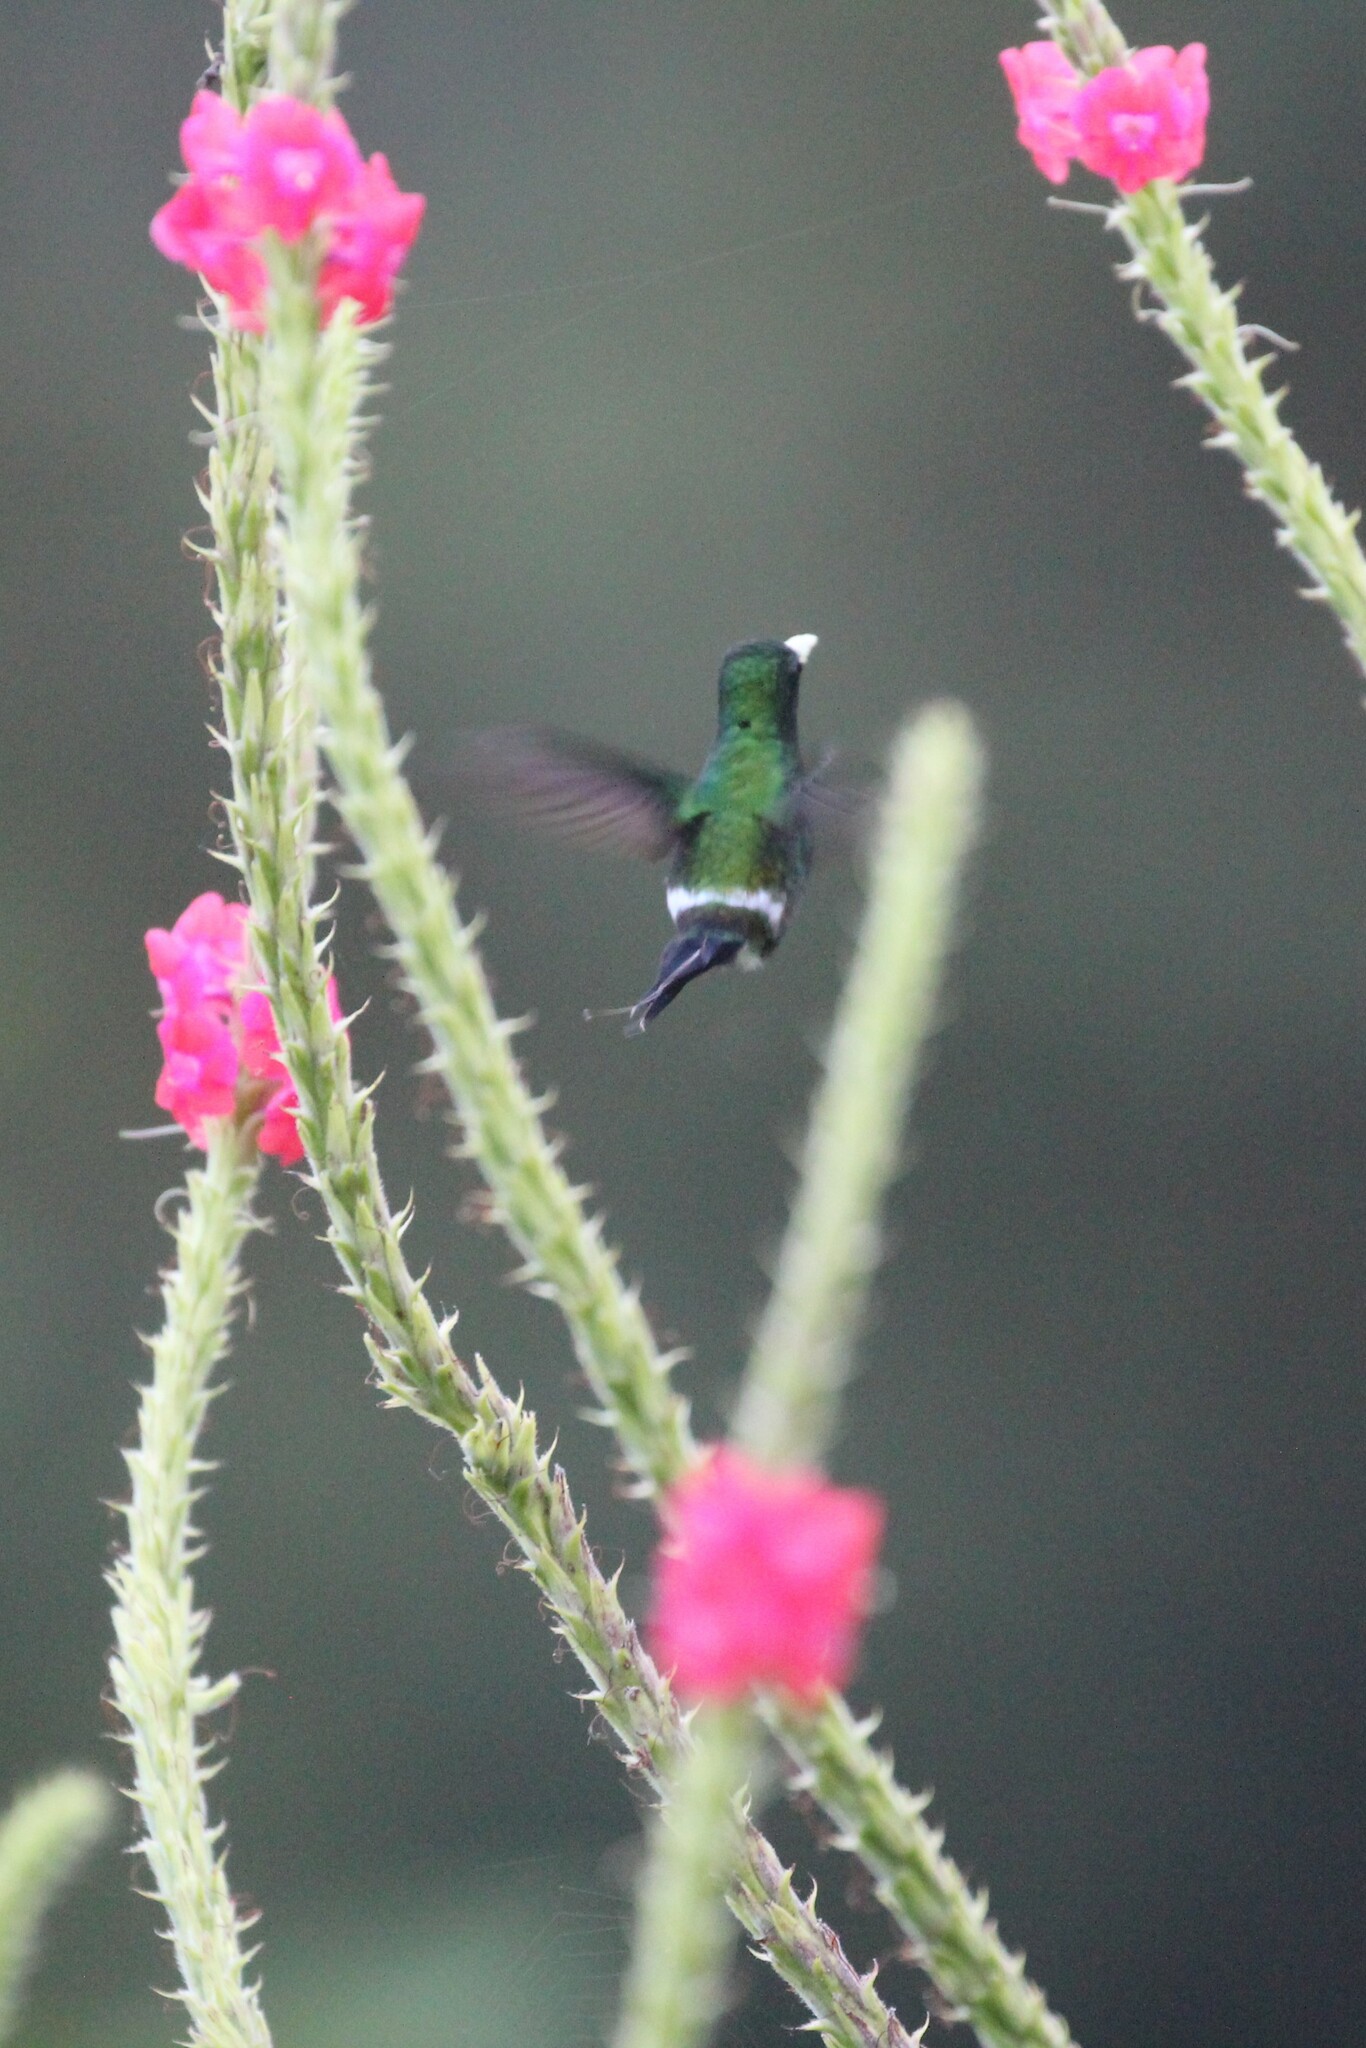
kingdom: Animalia
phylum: Chordata
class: Aves
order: Apodiformes
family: Trochilidae
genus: Discosura
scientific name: Discosura conversii
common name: Green thorntail
